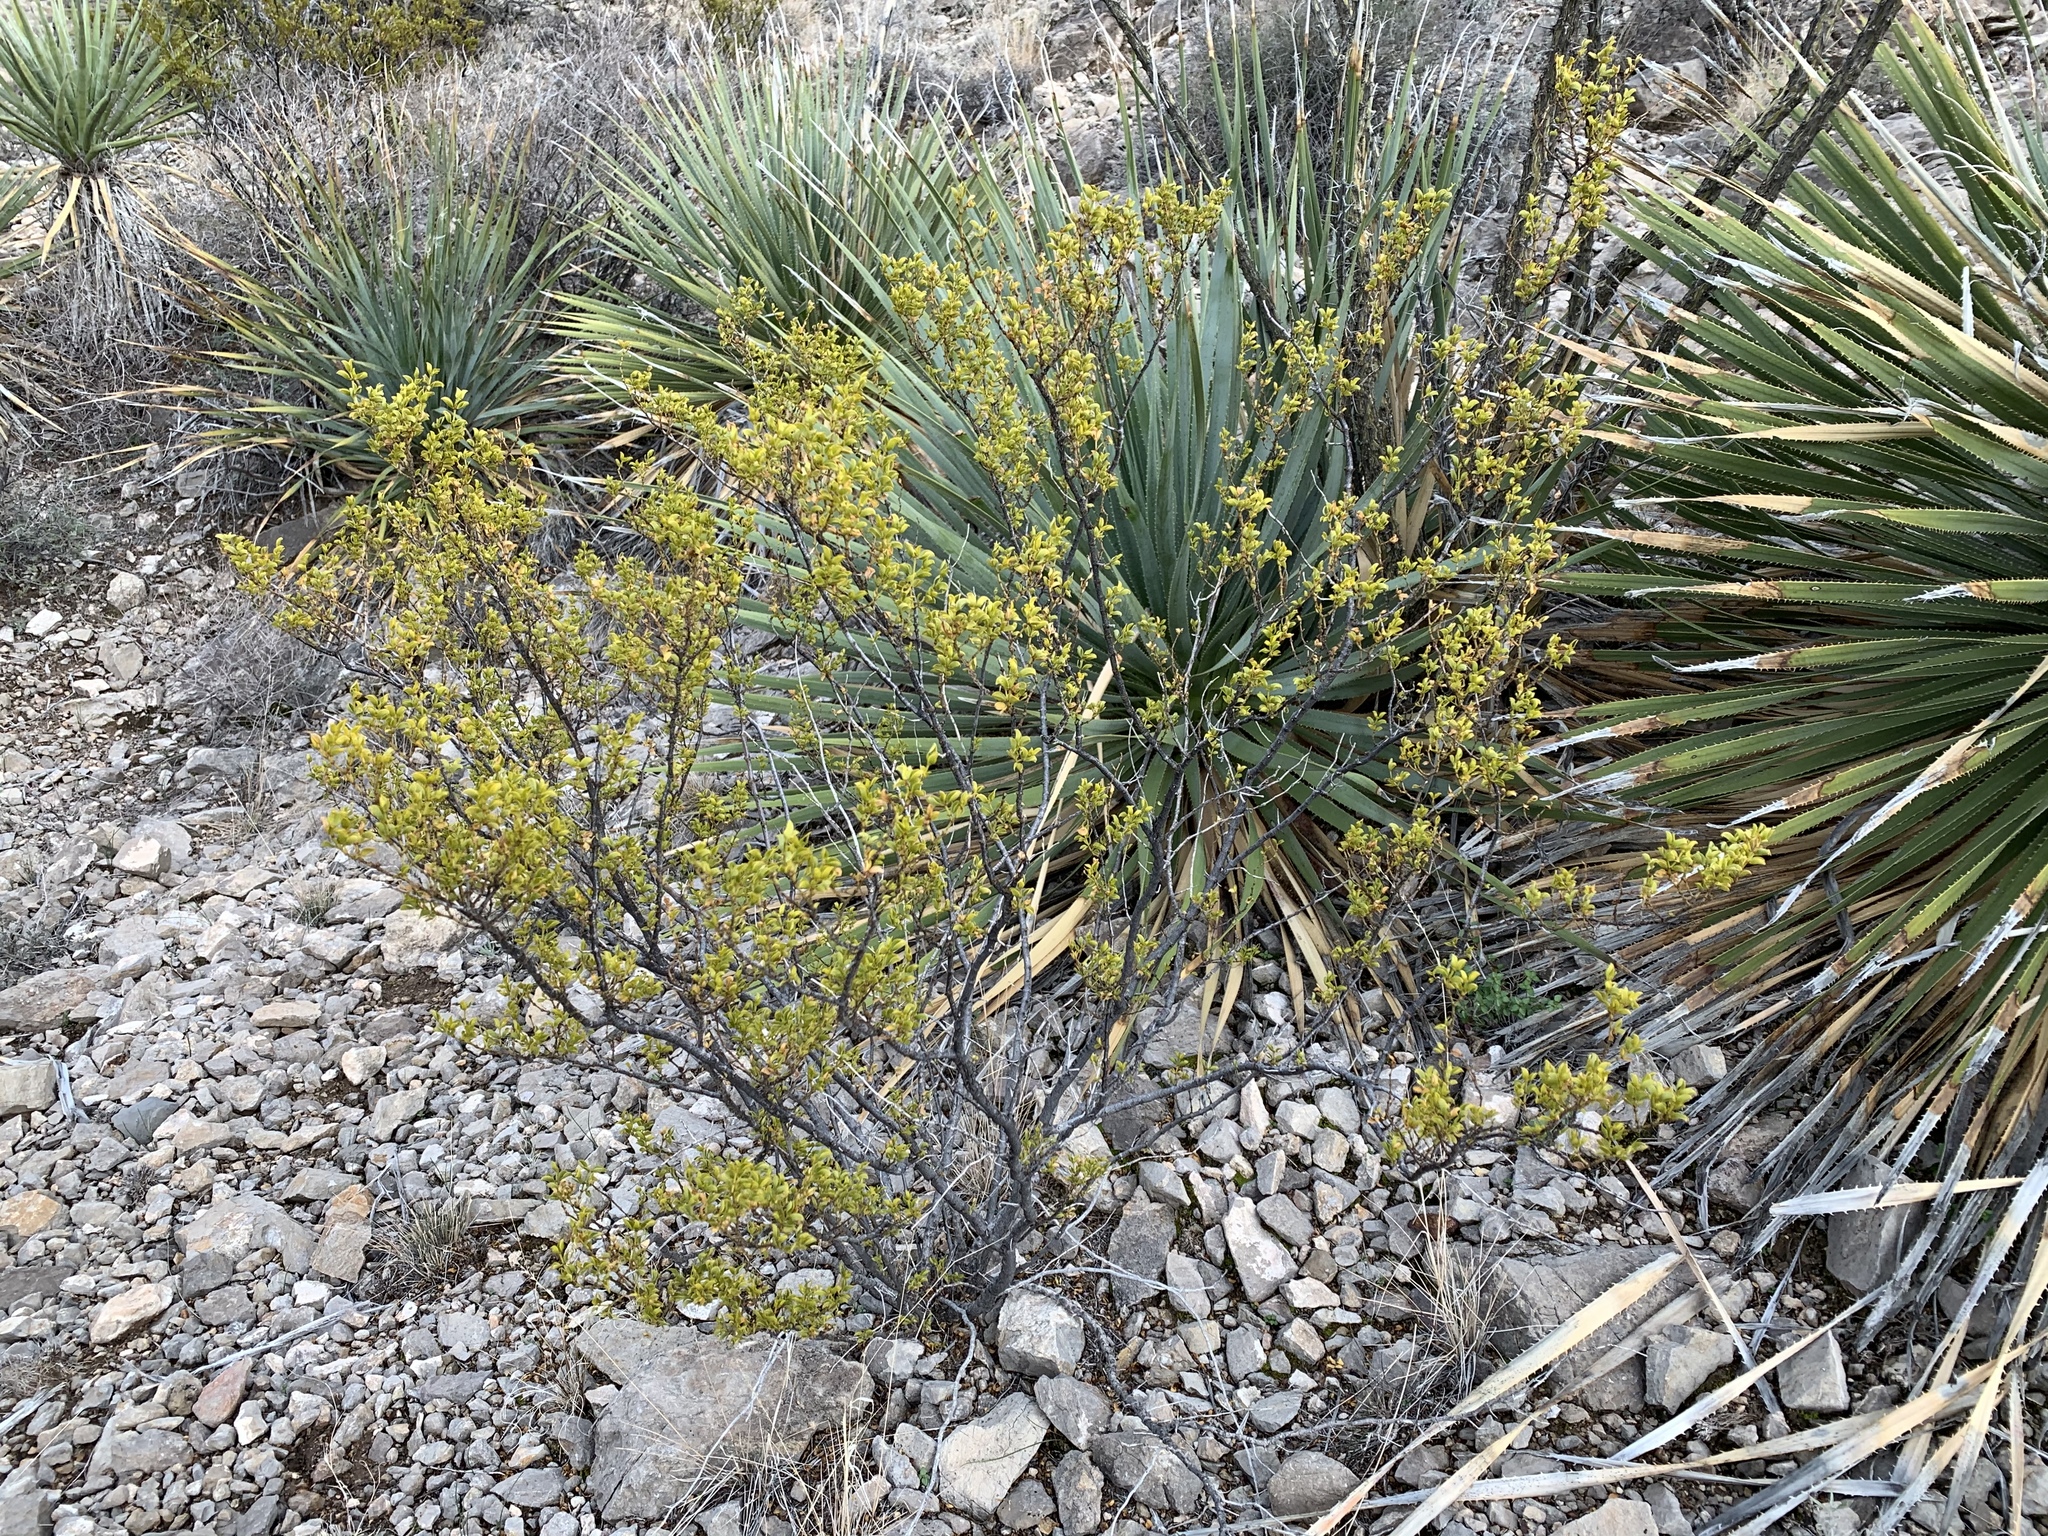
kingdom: Plantae
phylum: Tracheophyta
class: Magnoliopsida
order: Zygophyllales
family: Zygophyllaceae
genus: Larrea
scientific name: Larrea tridentata
